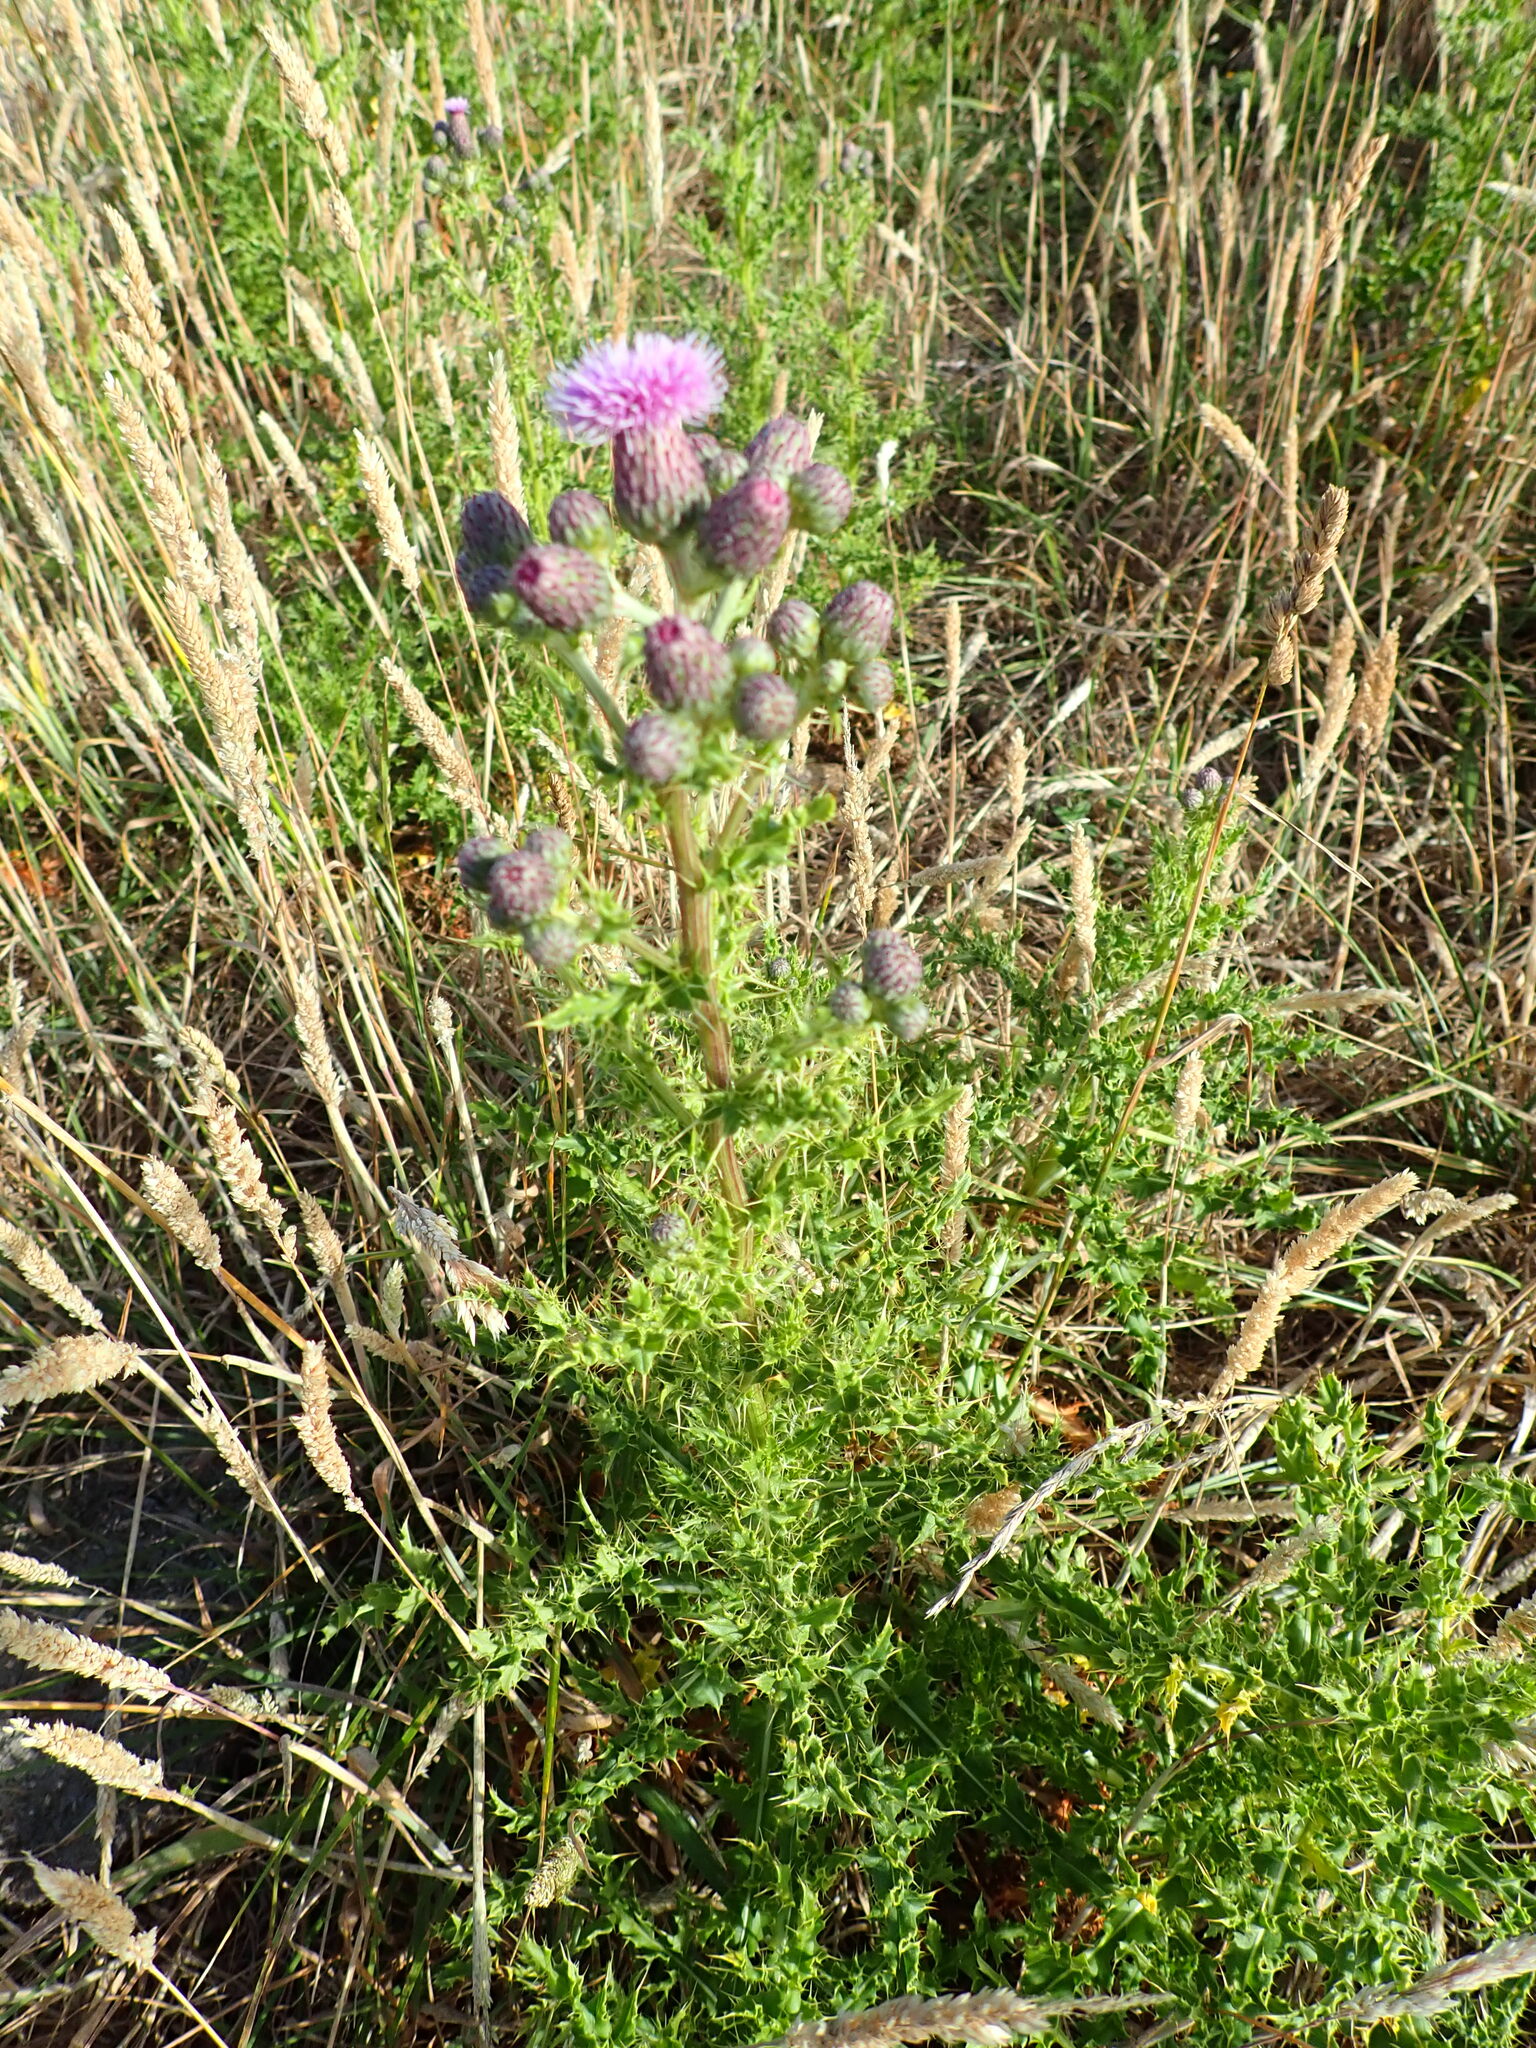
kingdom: Plantae
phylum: Tracheophyta
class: Magnoliopsida
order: Asterales
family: Asteraceae
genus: Cirsium
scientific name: Cirsium arvense
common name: Creeping thistle
